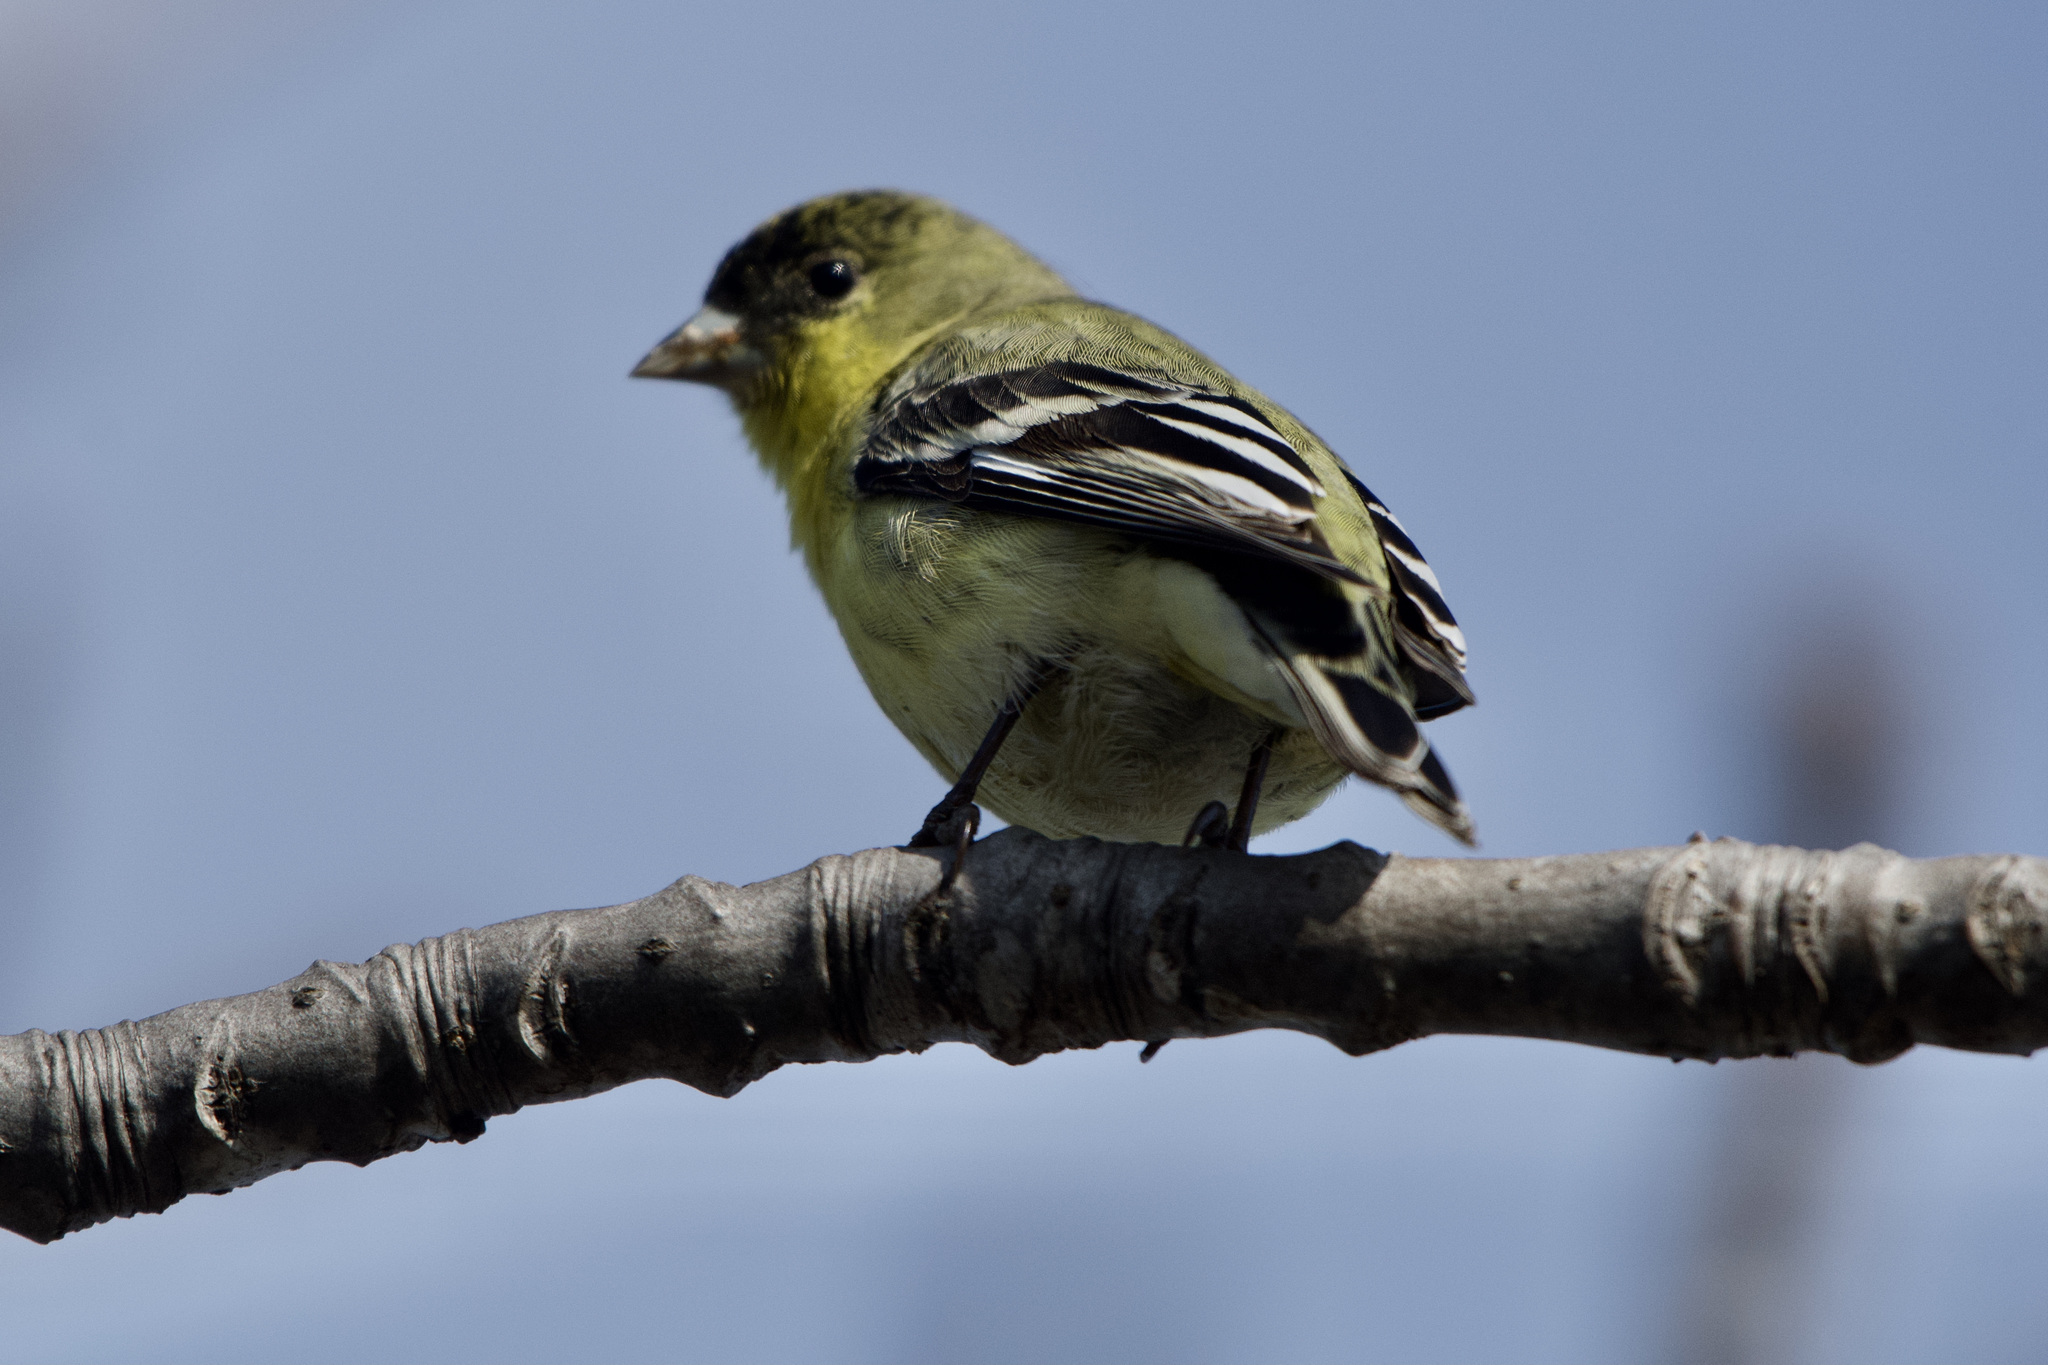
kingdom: Animalia
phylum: Chordata
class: Aves
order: Passeriformes
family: Fringillidae
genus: Spinus
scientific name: Spinus psaltria
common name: Lesser goldfinch
